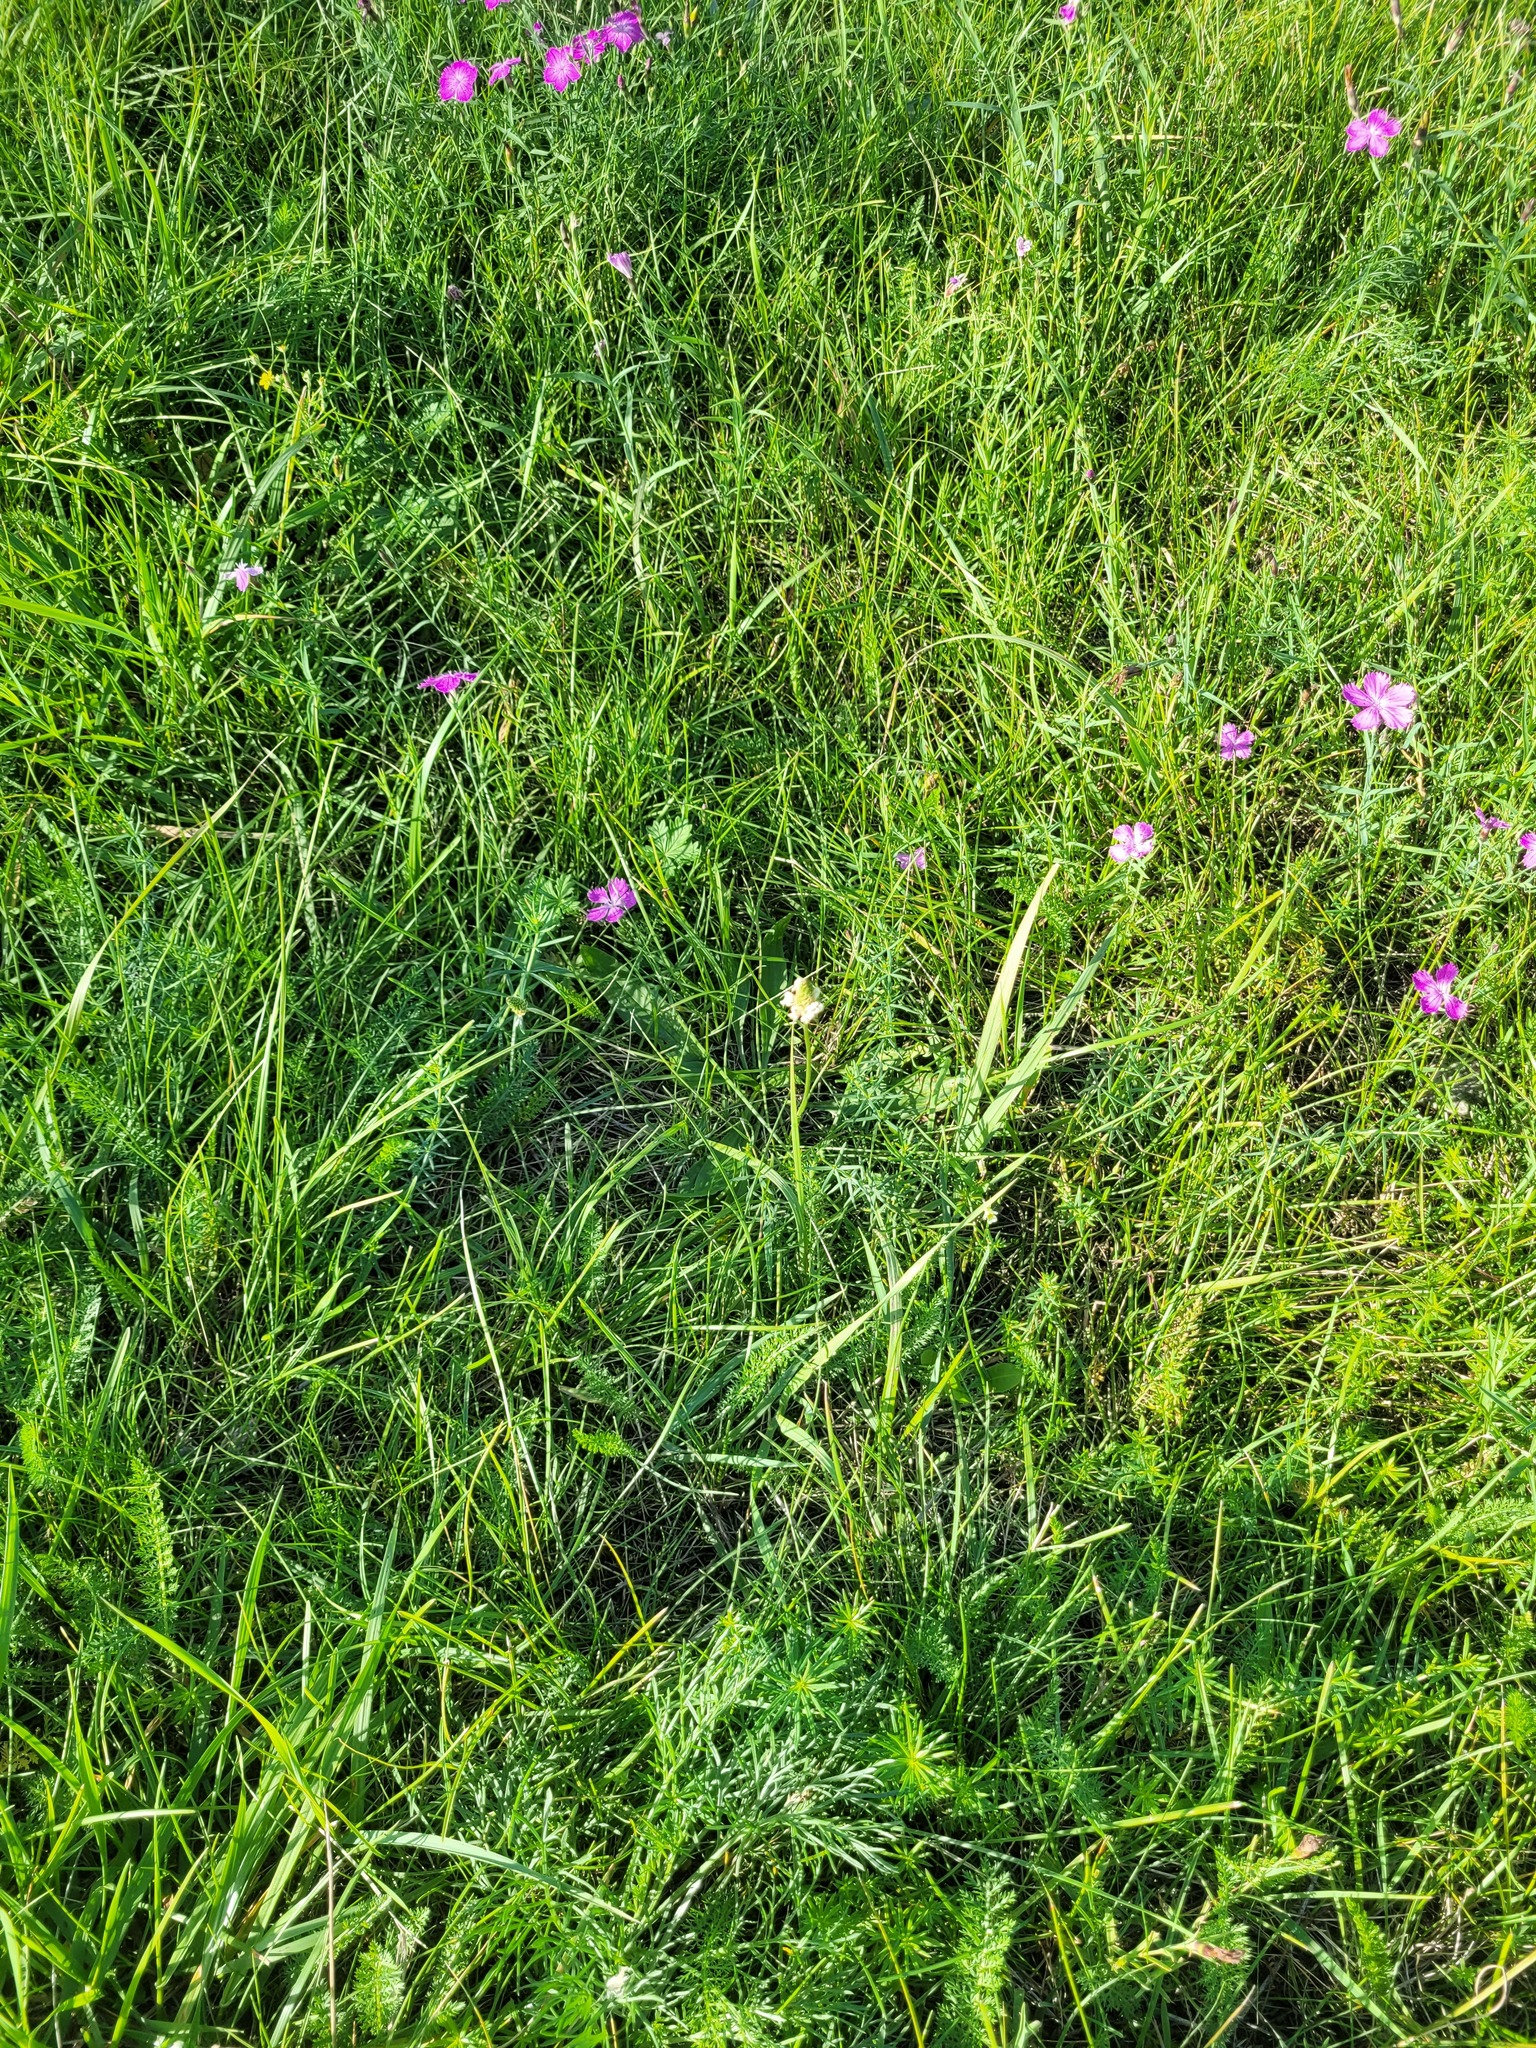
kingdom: Plantae
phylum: Tracheophyta
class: Magnoliopsida
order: Lamiales
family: Plantaginaceae
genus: Plantago
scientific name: Plantago lanceolata
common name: Ribwort plantain
